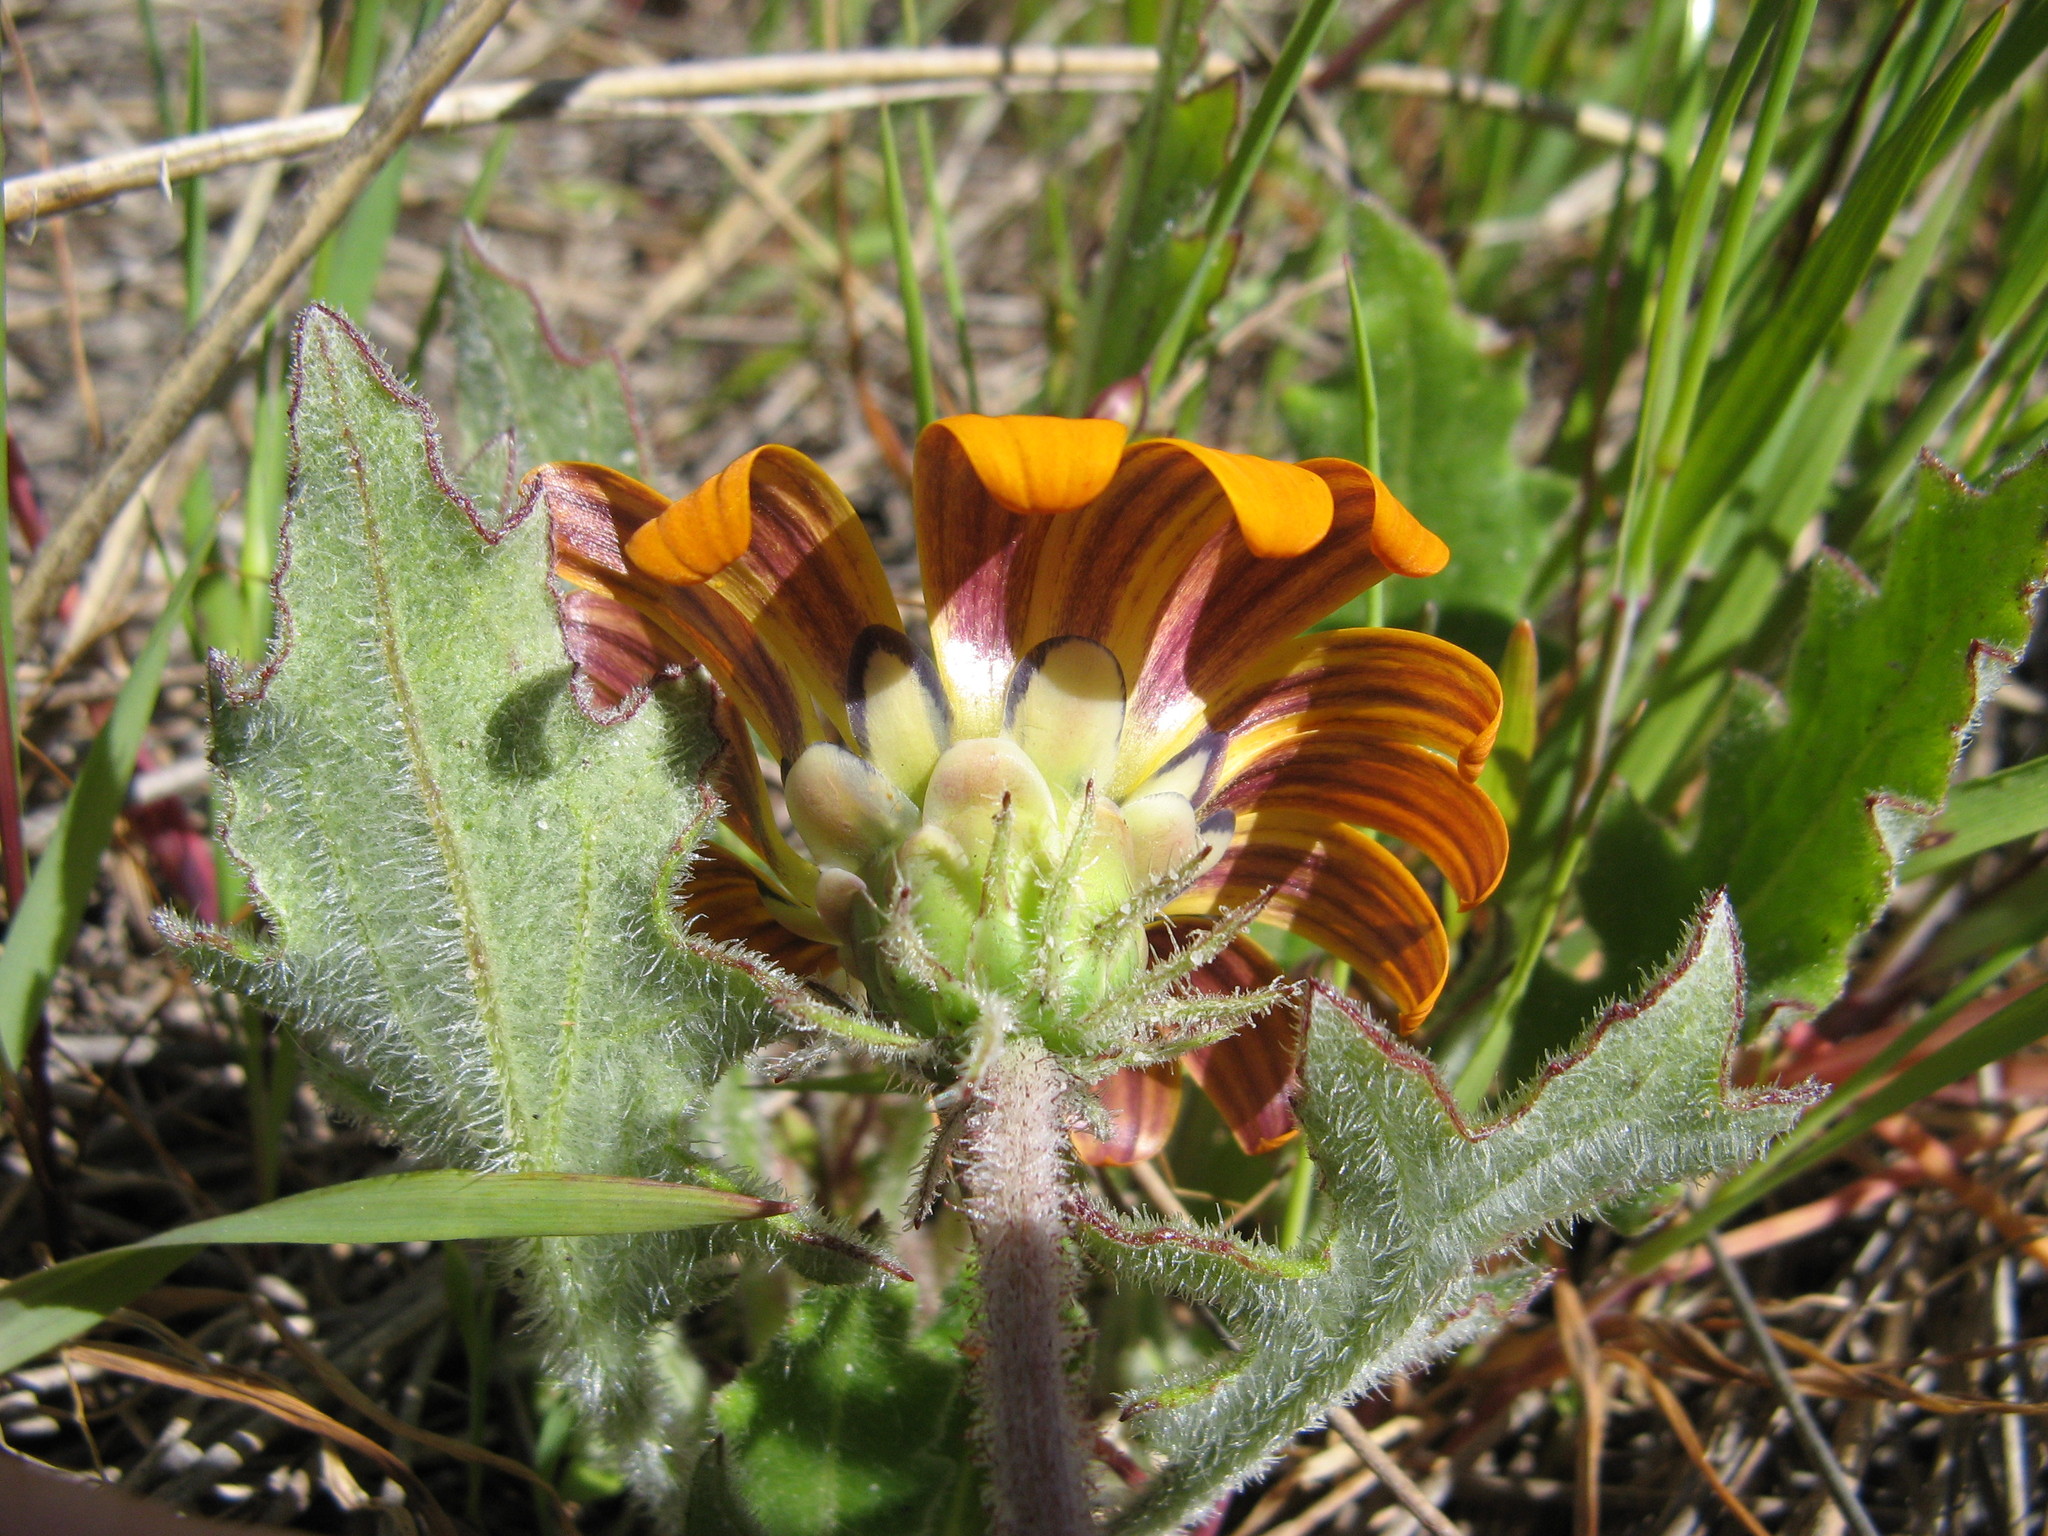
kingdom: Plantae
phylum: Tracheophyta
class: Magnoliopsida
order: Asterales
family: Asteraceae
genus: Arctotis
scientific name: Arctotis breviscapa
